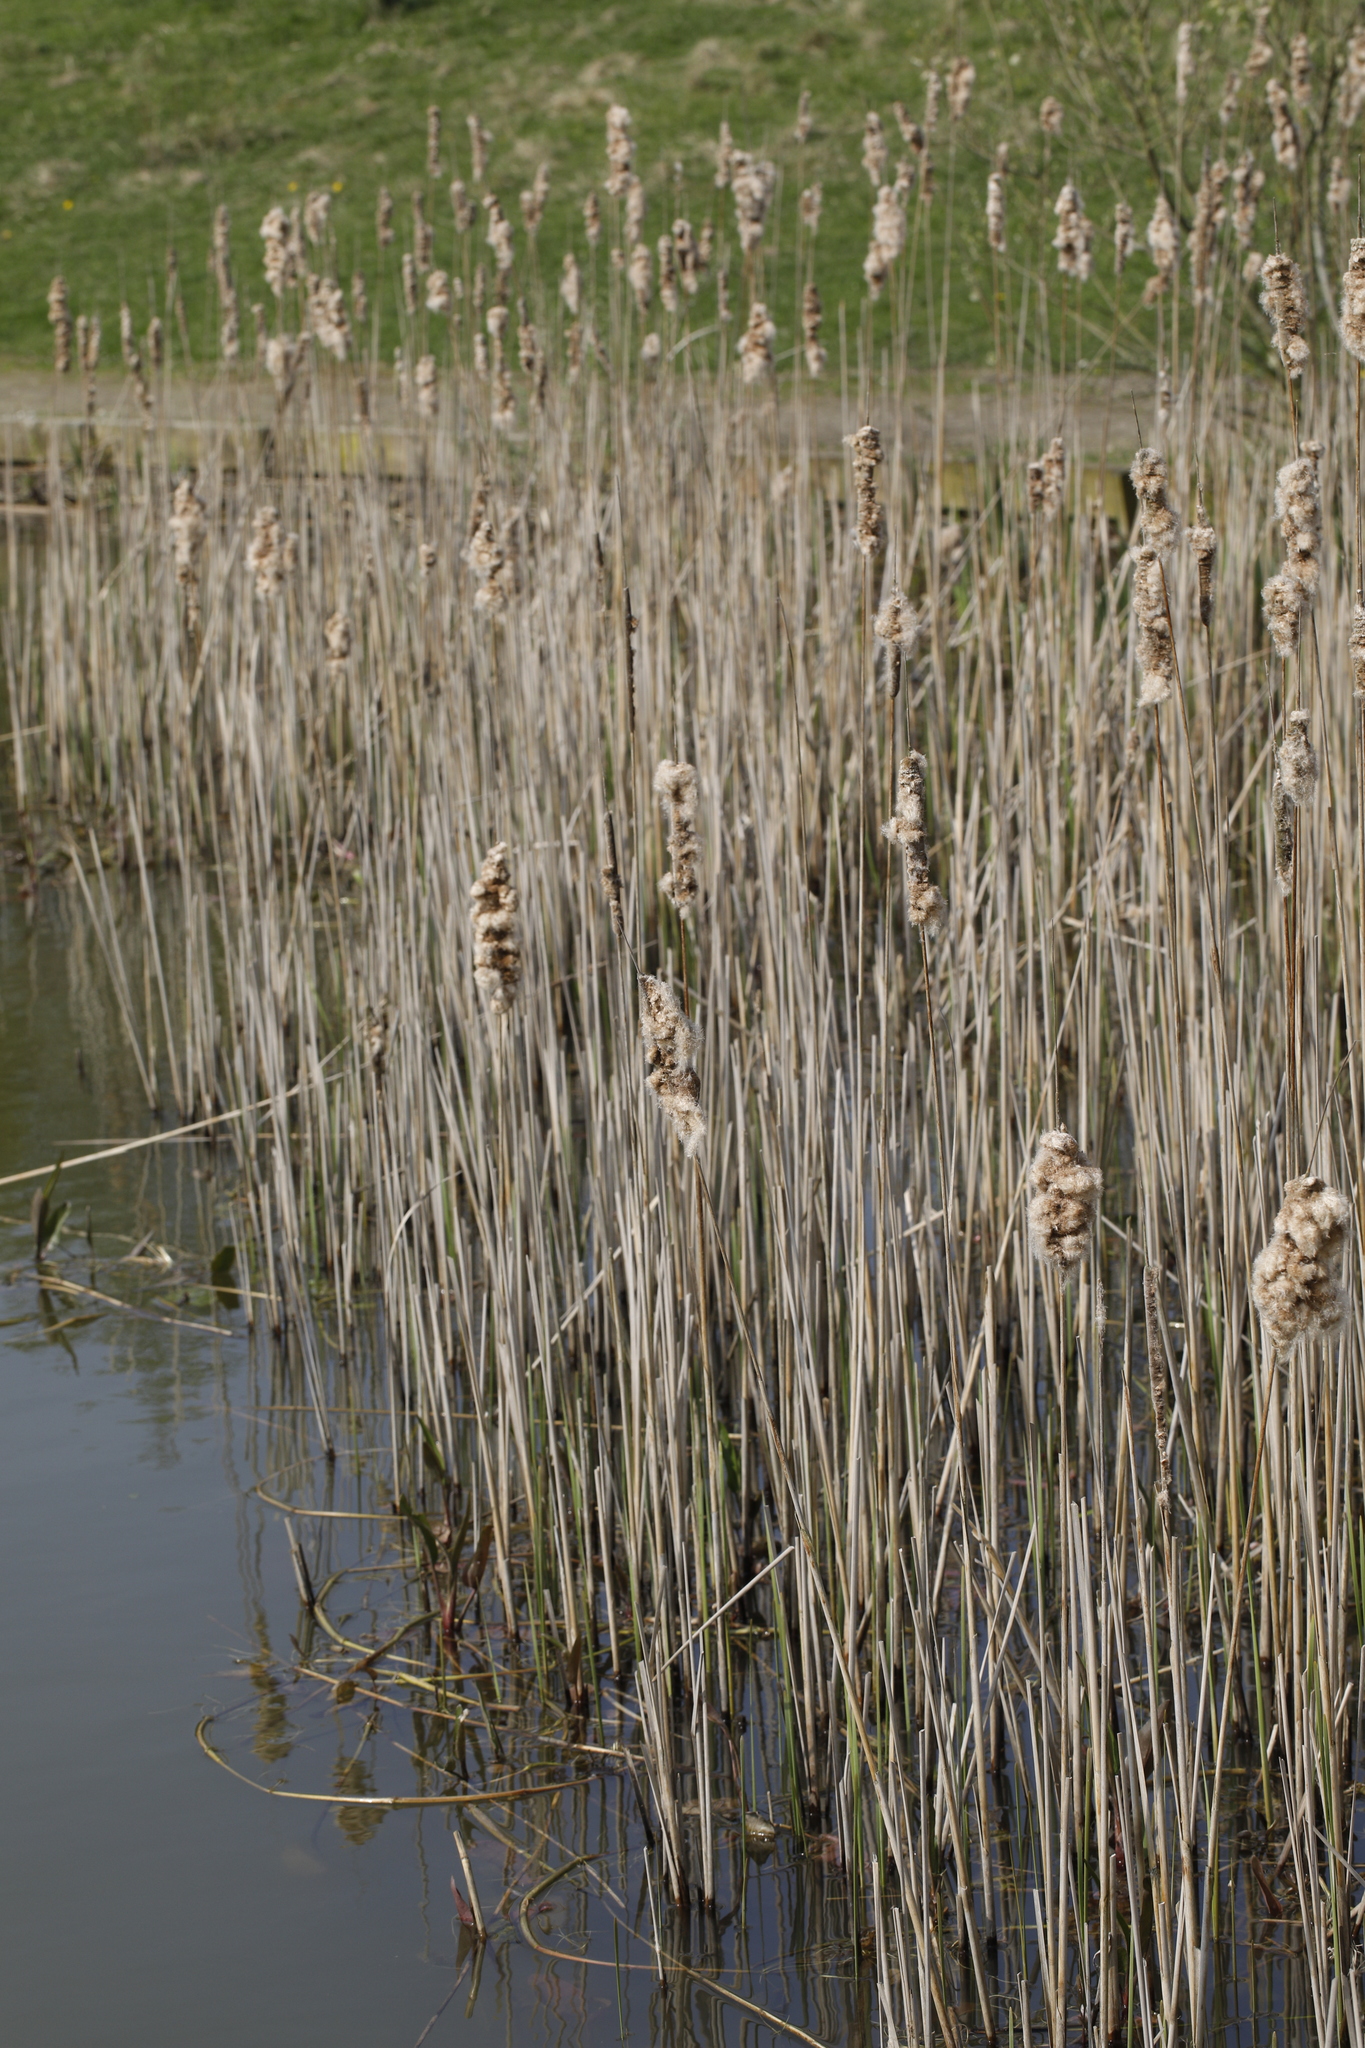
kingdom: Plantae
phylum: Tracheophyta
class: Liliopsida
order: Poales
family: Typhaceae
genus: Typha
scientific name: Typha latifolia
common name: Broadleaf cattail
